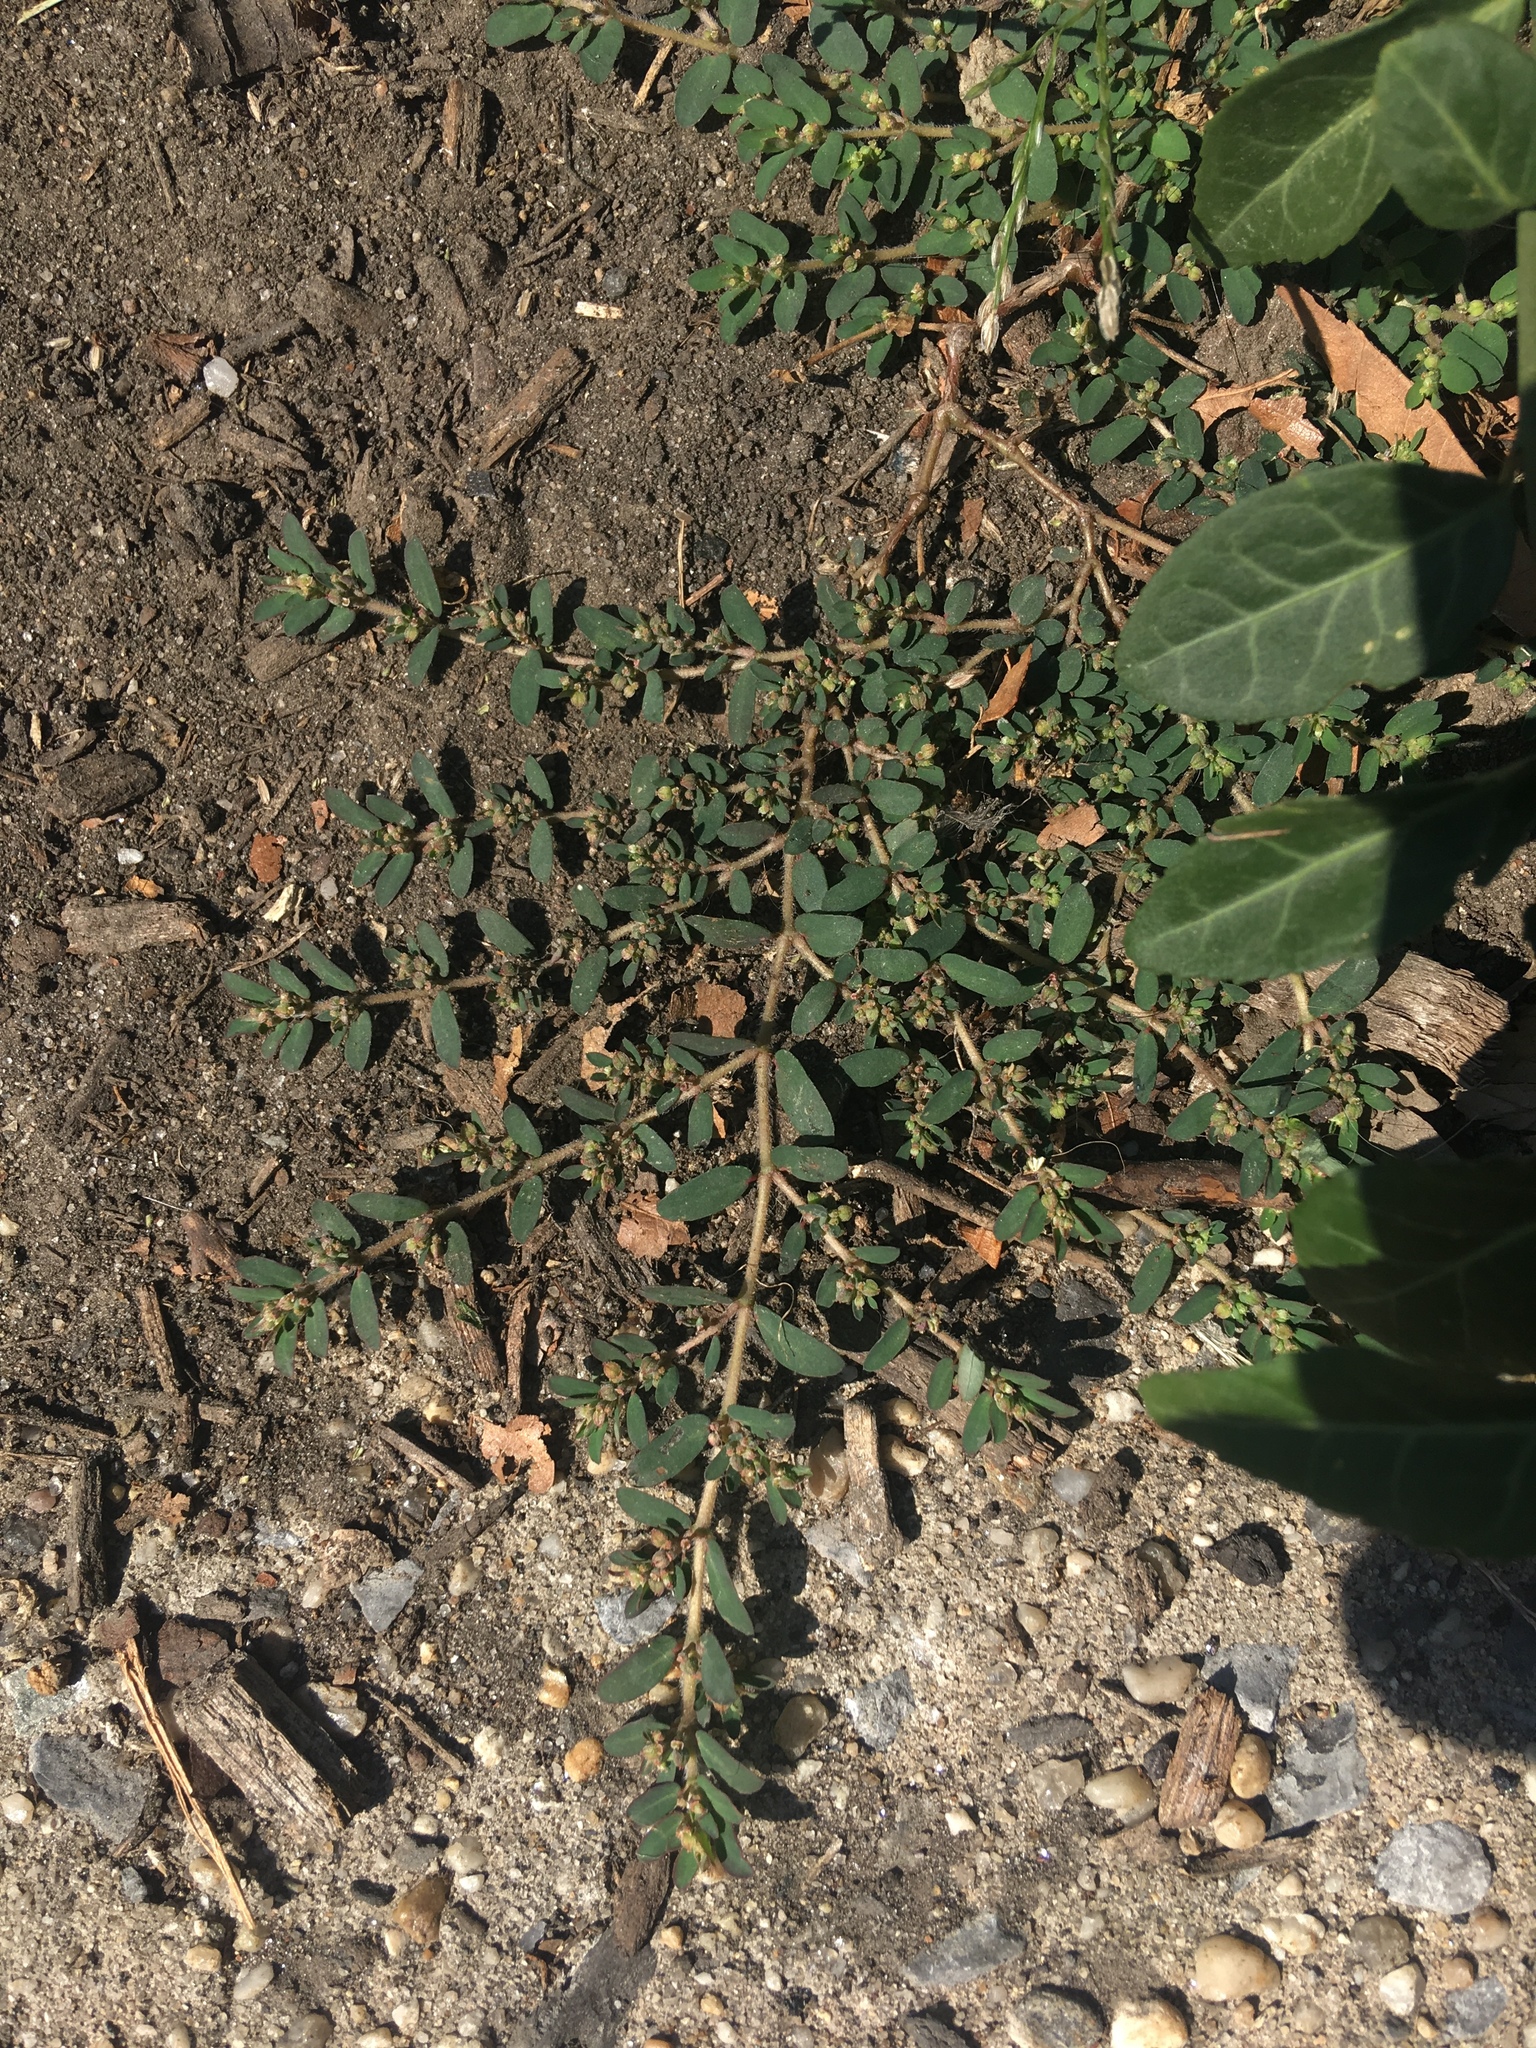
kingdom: Plantae
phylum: Tracheophyta
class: Magnoliopsida
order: Malpighiales
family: Euphorbiaceae
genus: Euphorbia
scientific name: Euphorbia maculata
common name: Spotted spurge
